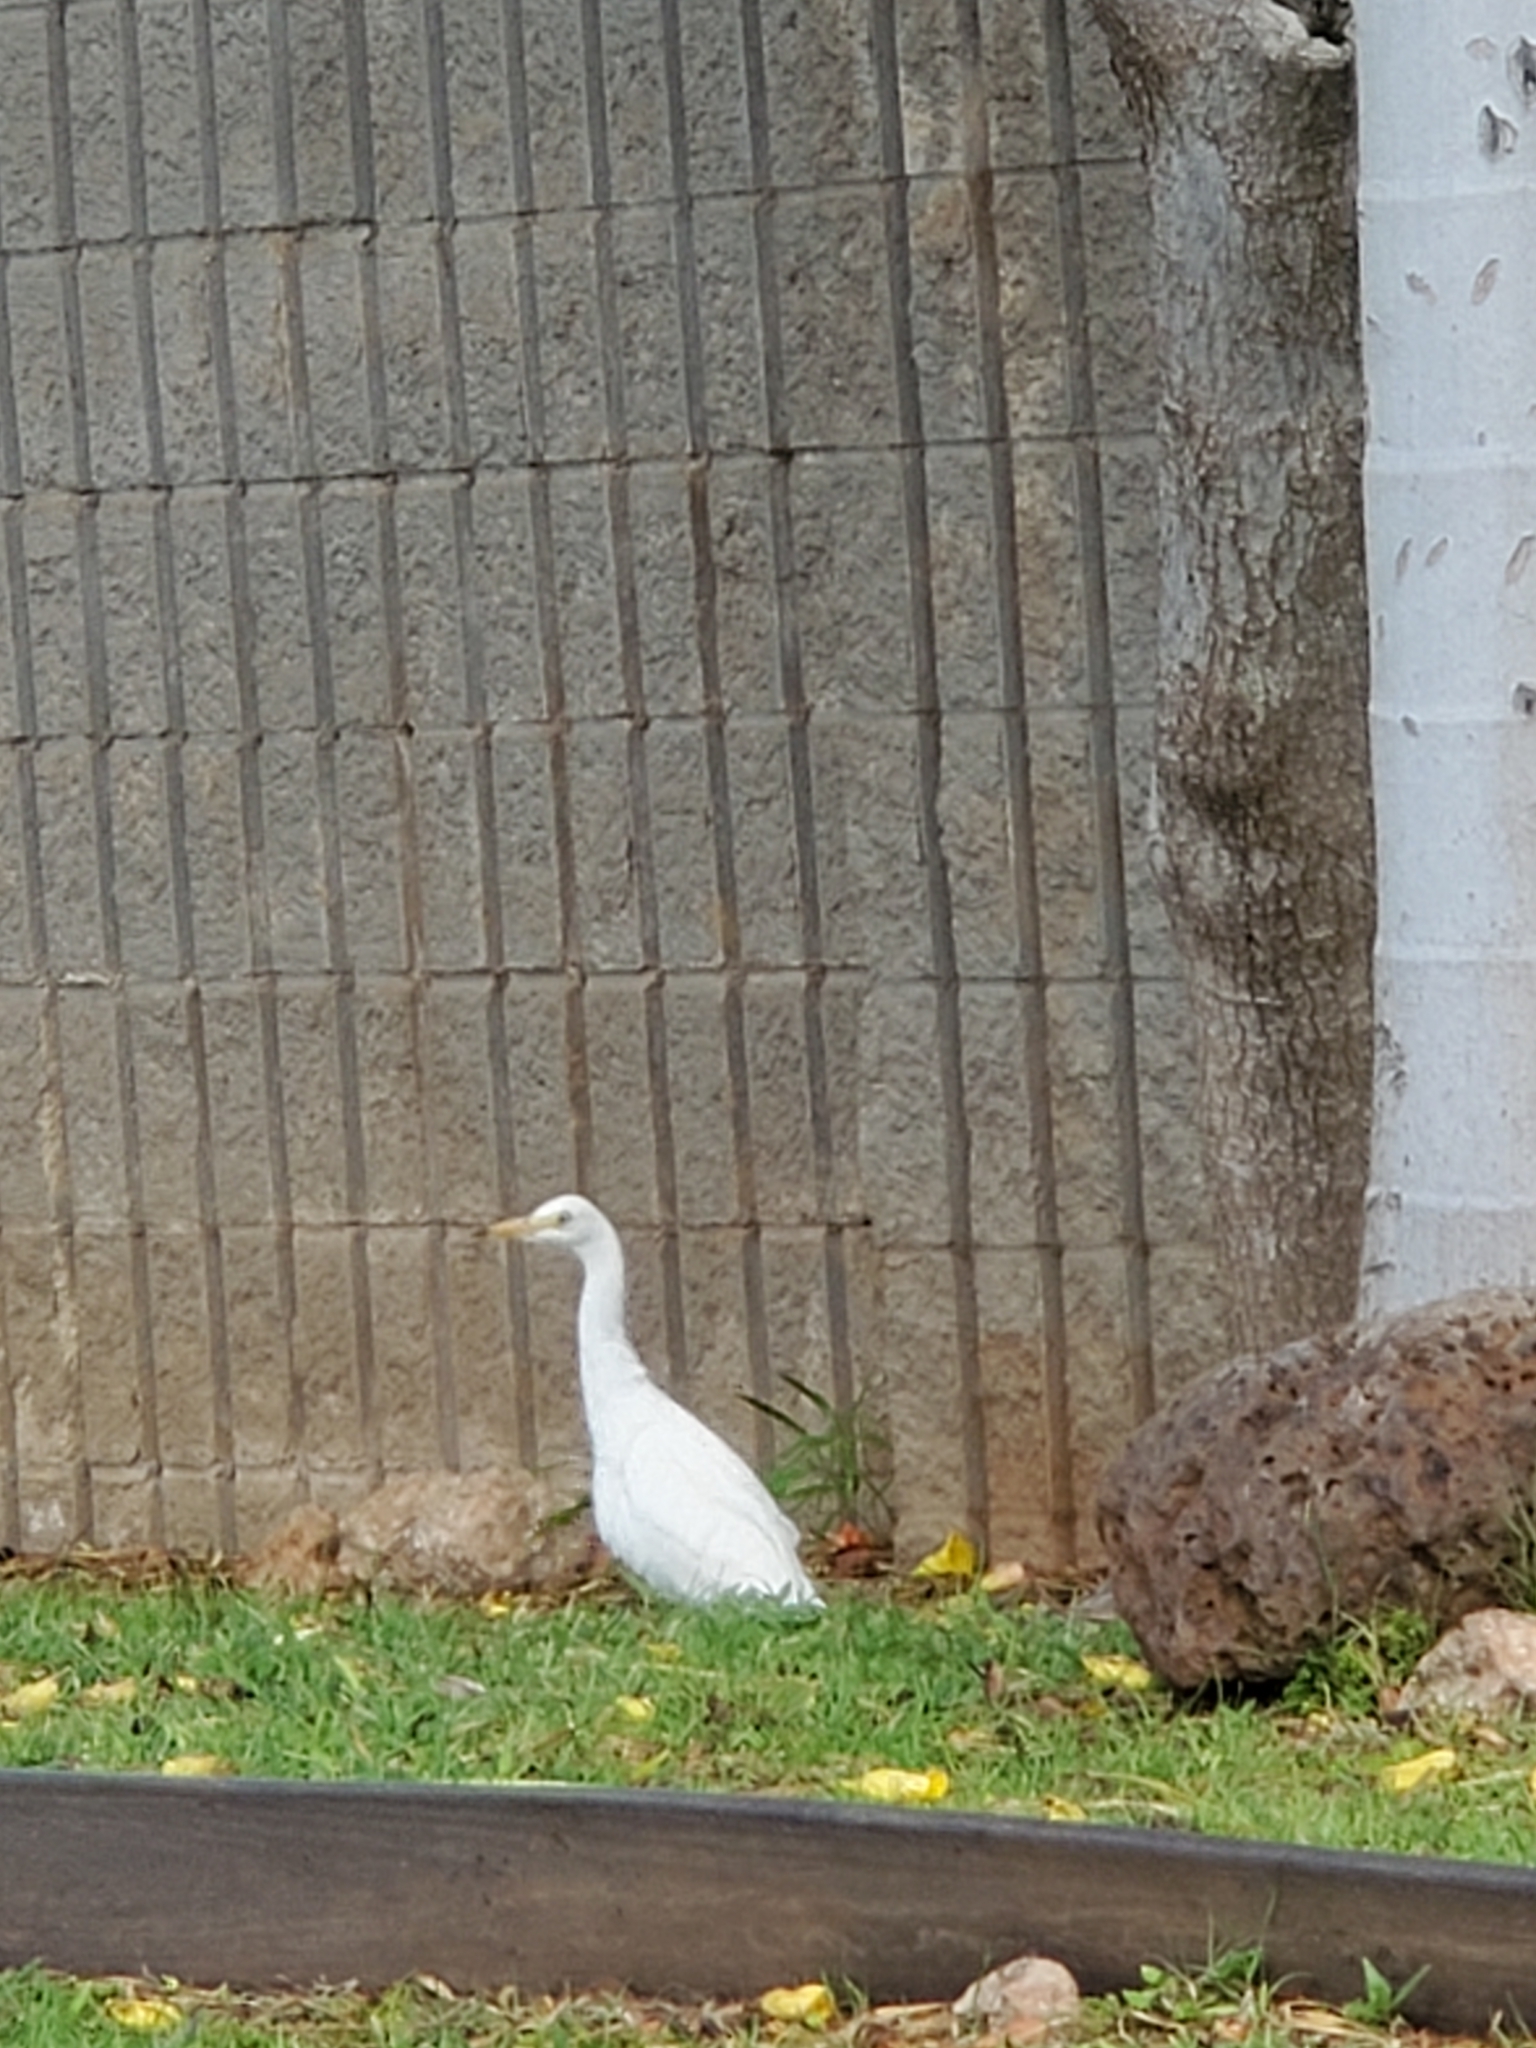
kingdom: Animalia
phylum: Chordata
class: Aves
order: Pelecaniformes
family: Ardeidae
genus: Bubulcus
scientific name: Bubulcus ibis
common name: Cattle egret
